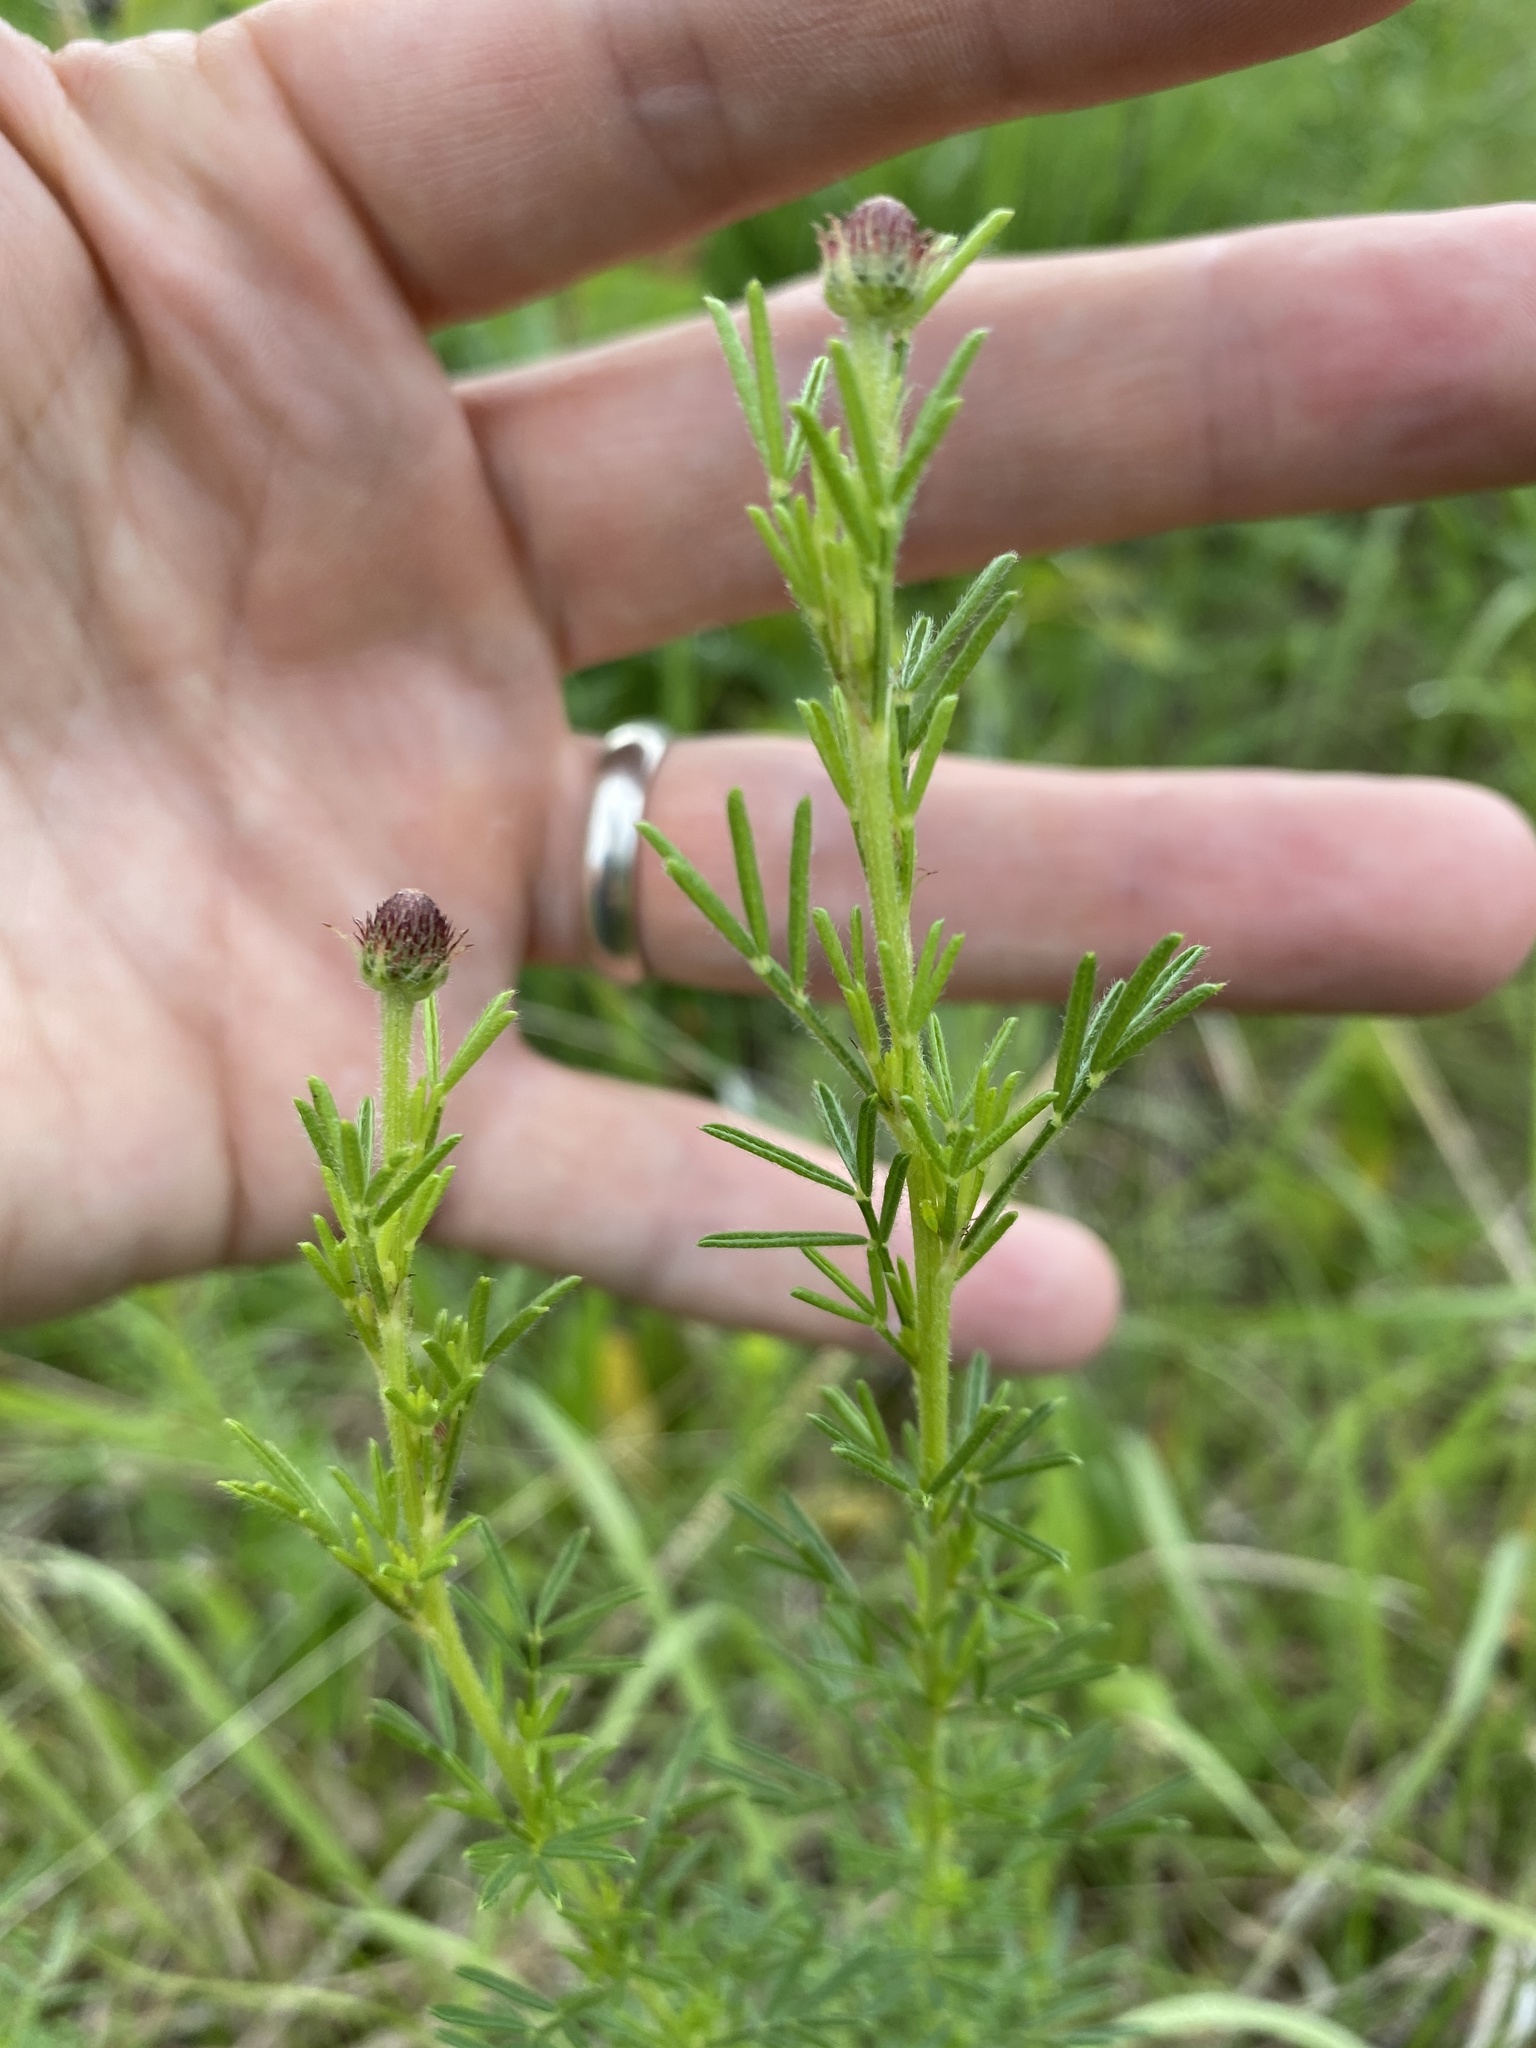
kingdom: Plantae
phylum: Tracheophyta
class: Magnoliopsida
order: Fabales
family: Fabaceae
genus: Dalea
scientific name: Dalea purpurea
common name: Purple prairie-clover
